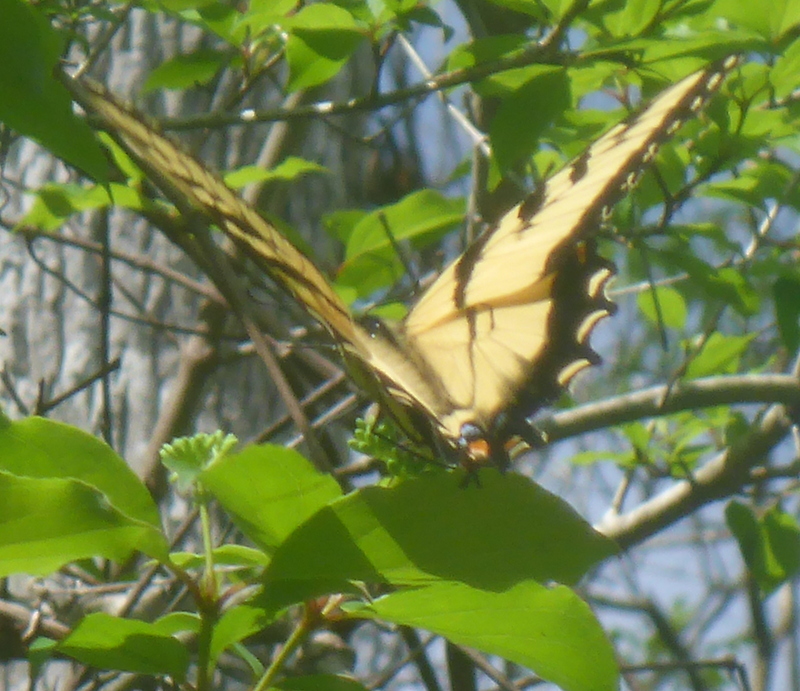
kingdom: Animalia
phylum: Arthropoda
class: Insecta
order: Lepidoptera
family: Papilionidae
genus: Papilio
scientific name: Papilio glaucus
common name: Tiger swallowtail
